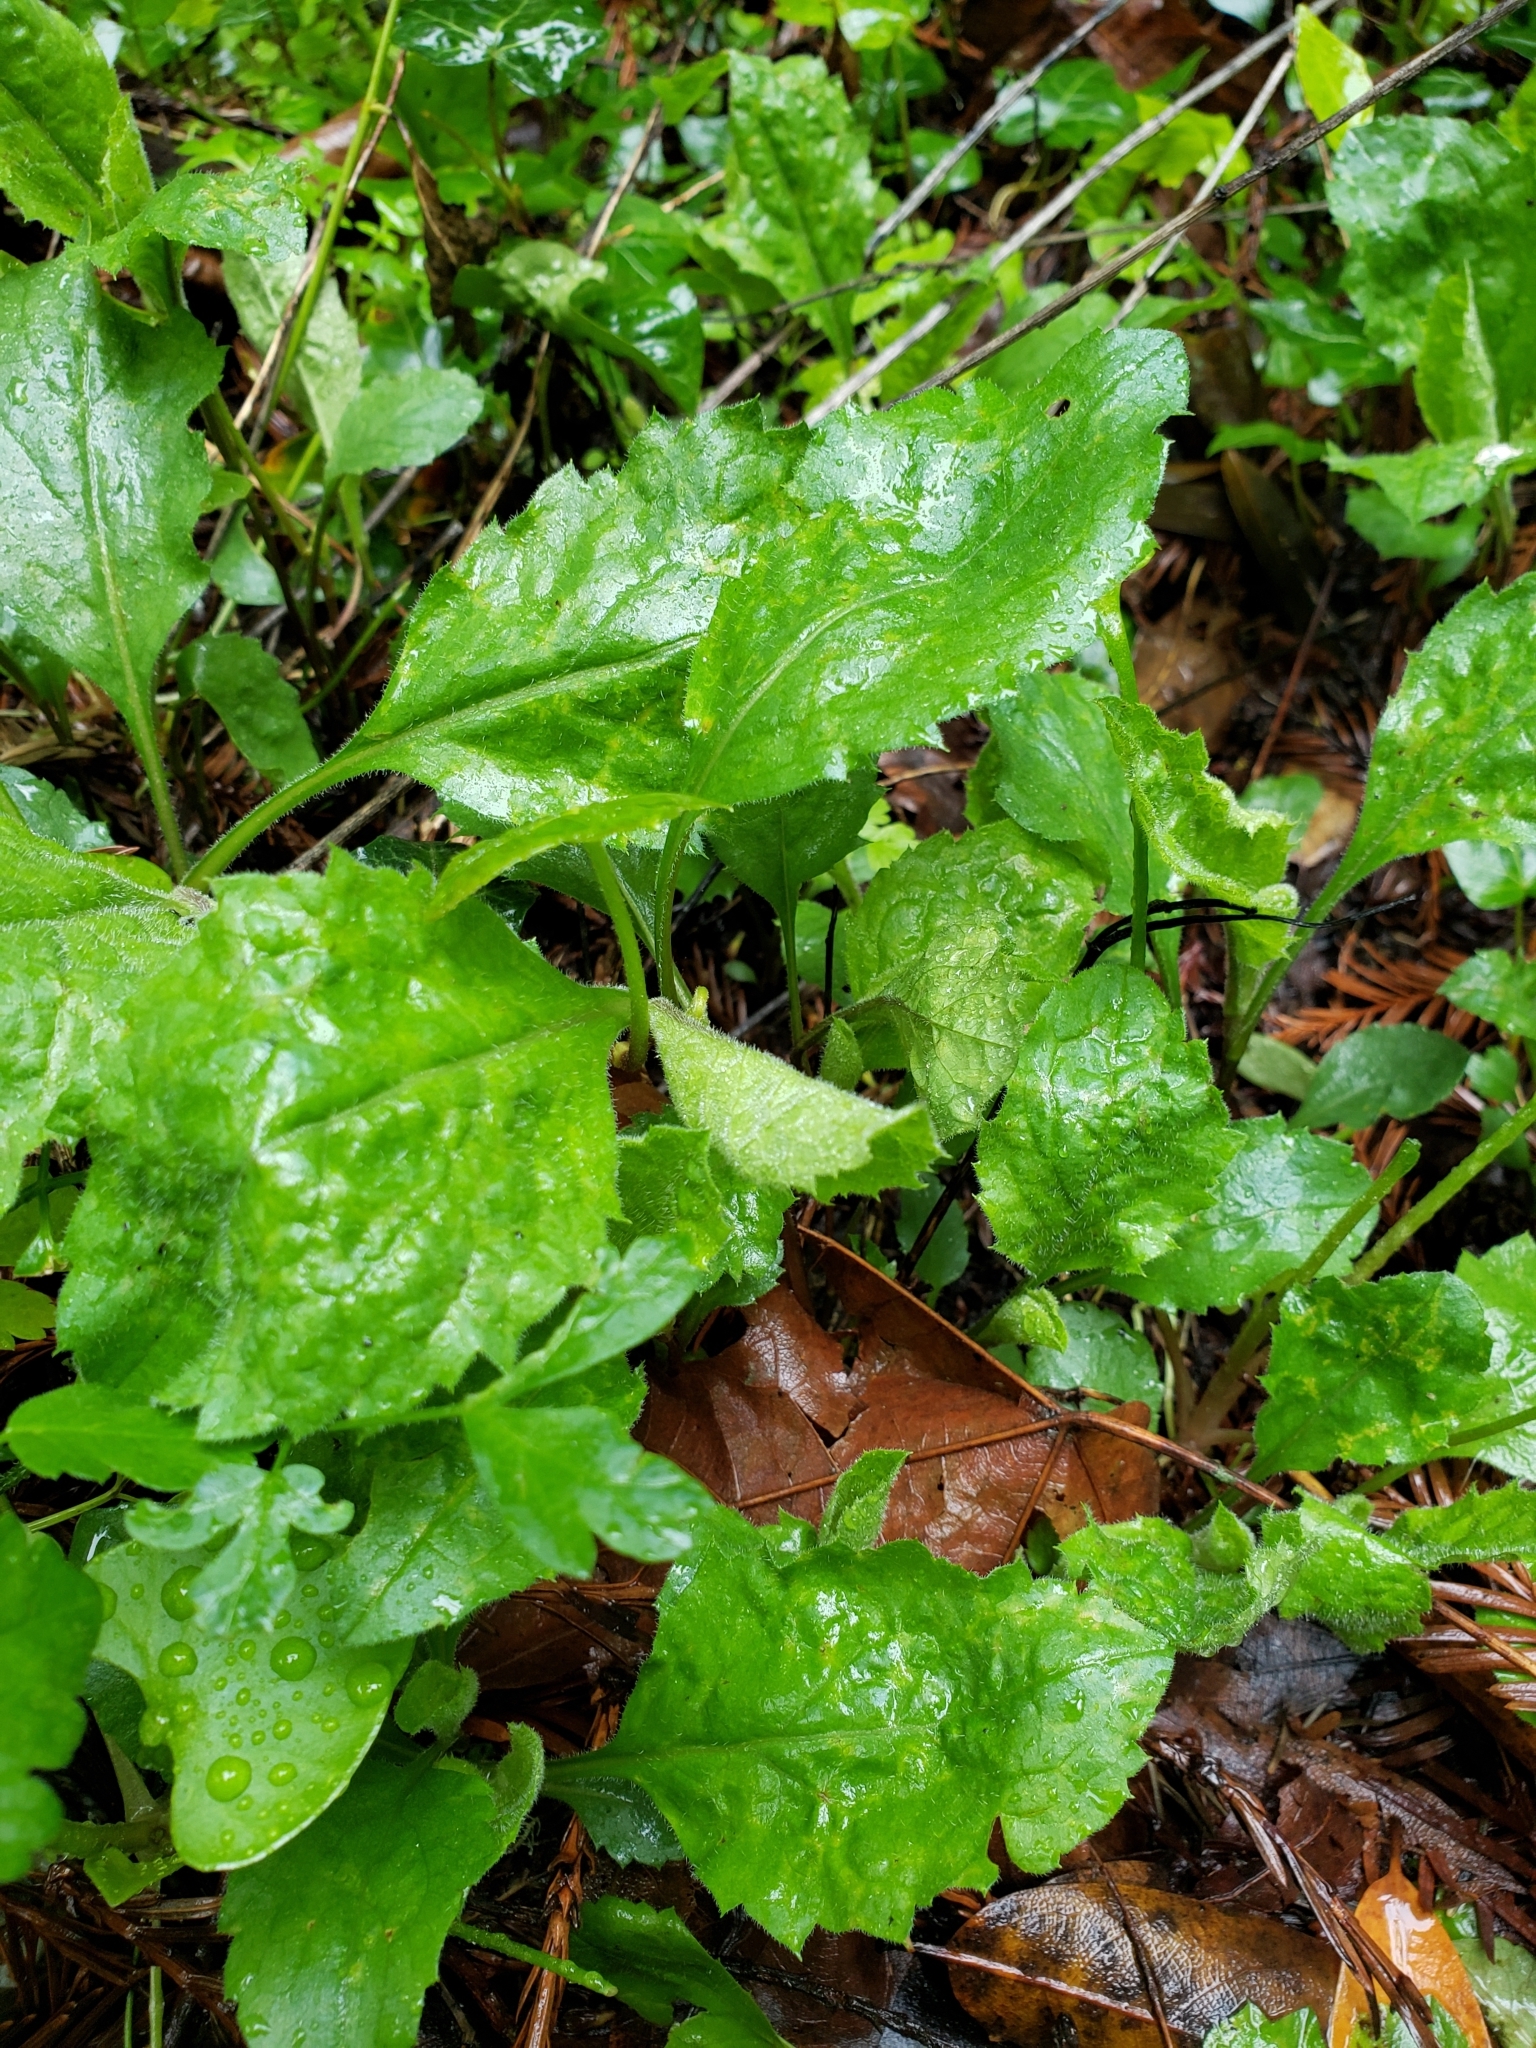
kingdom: Plantae
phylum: Tracheophyta
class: Magnoliopsida
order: Asterales
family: Asteraceae
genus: Eurybia
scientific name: Eurybia radulina
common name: Rough-leaved aster
